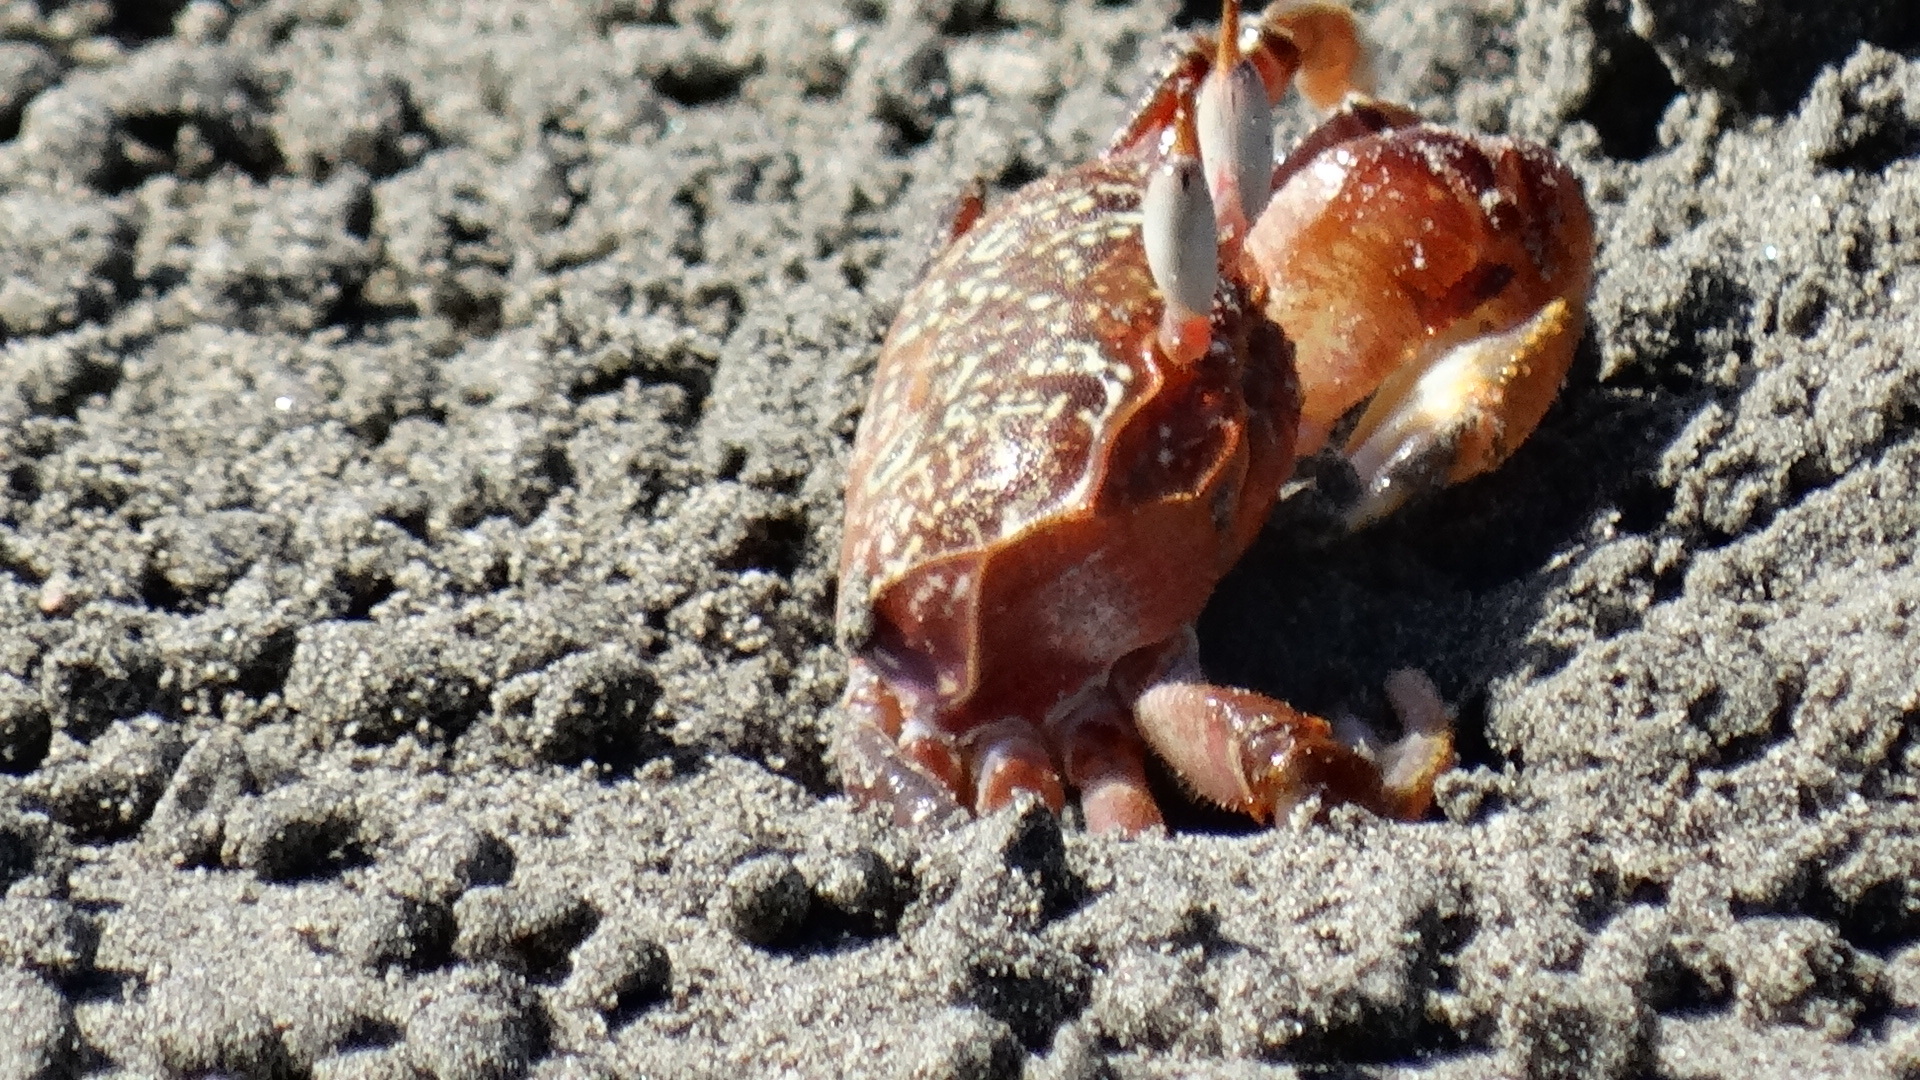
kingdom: Animalia
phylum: Arthropoda
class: Malacostraca
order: Decapoda
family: Ocypodidae
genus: Ocypode
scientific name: Ocypode gaudichaudii
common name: Pacific ghost crab
